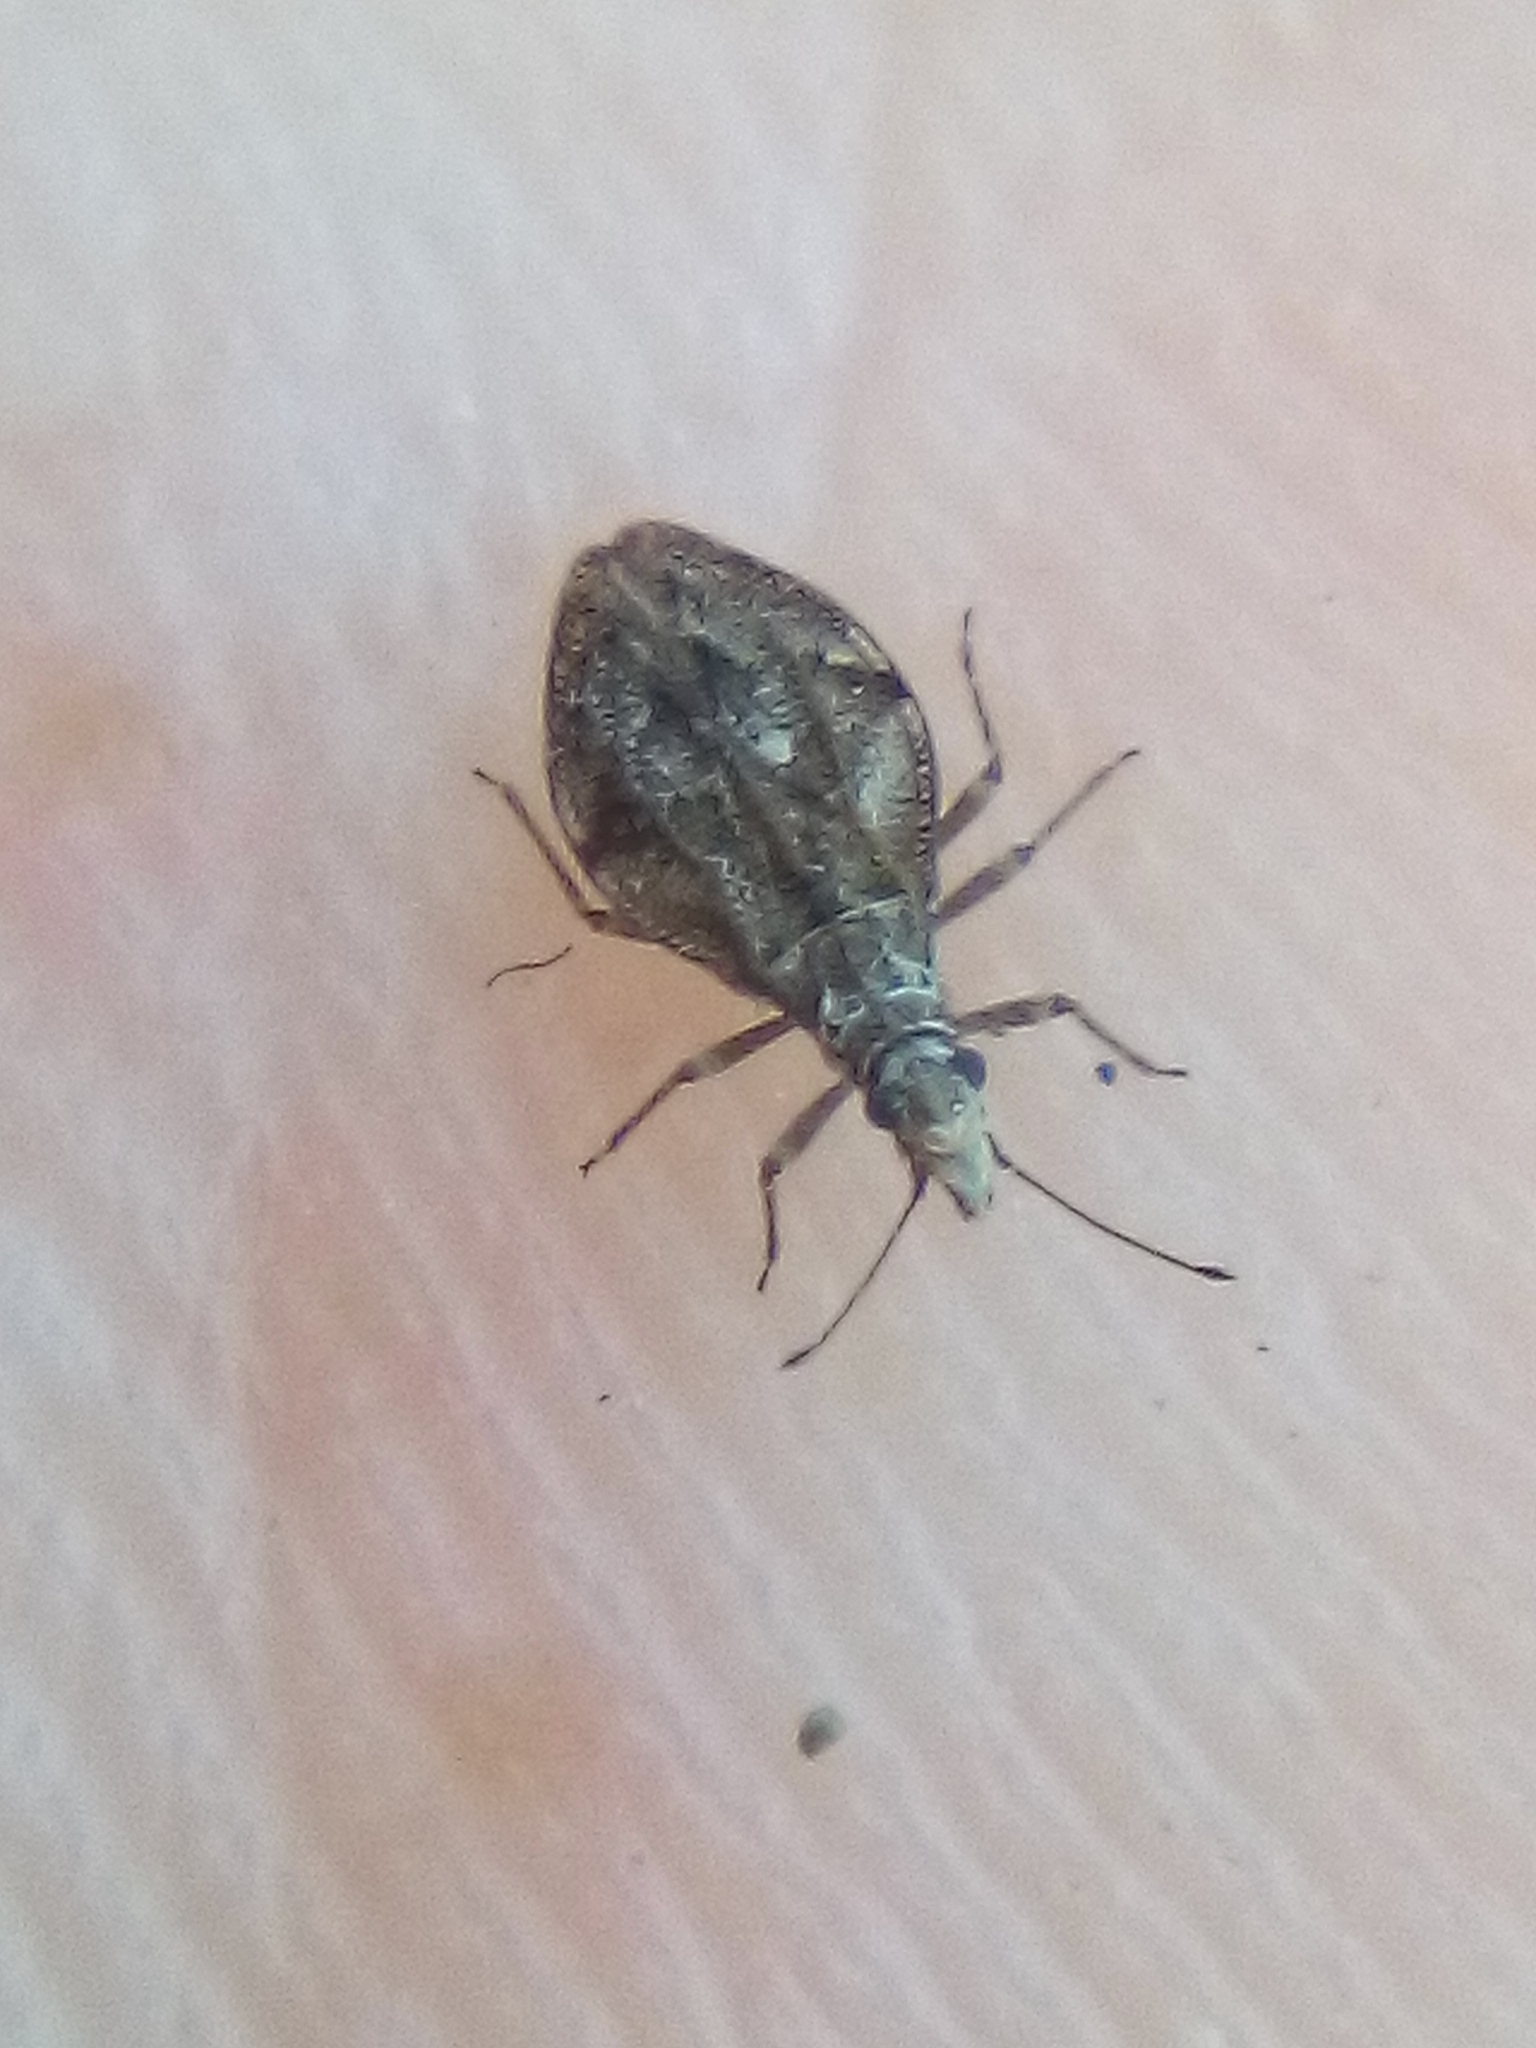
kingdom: Animalia
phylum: Arthropoda
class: Insecta
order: Hemiptera
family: Tingidae
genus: Cyperobia
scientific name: Cyperobia carectorum
